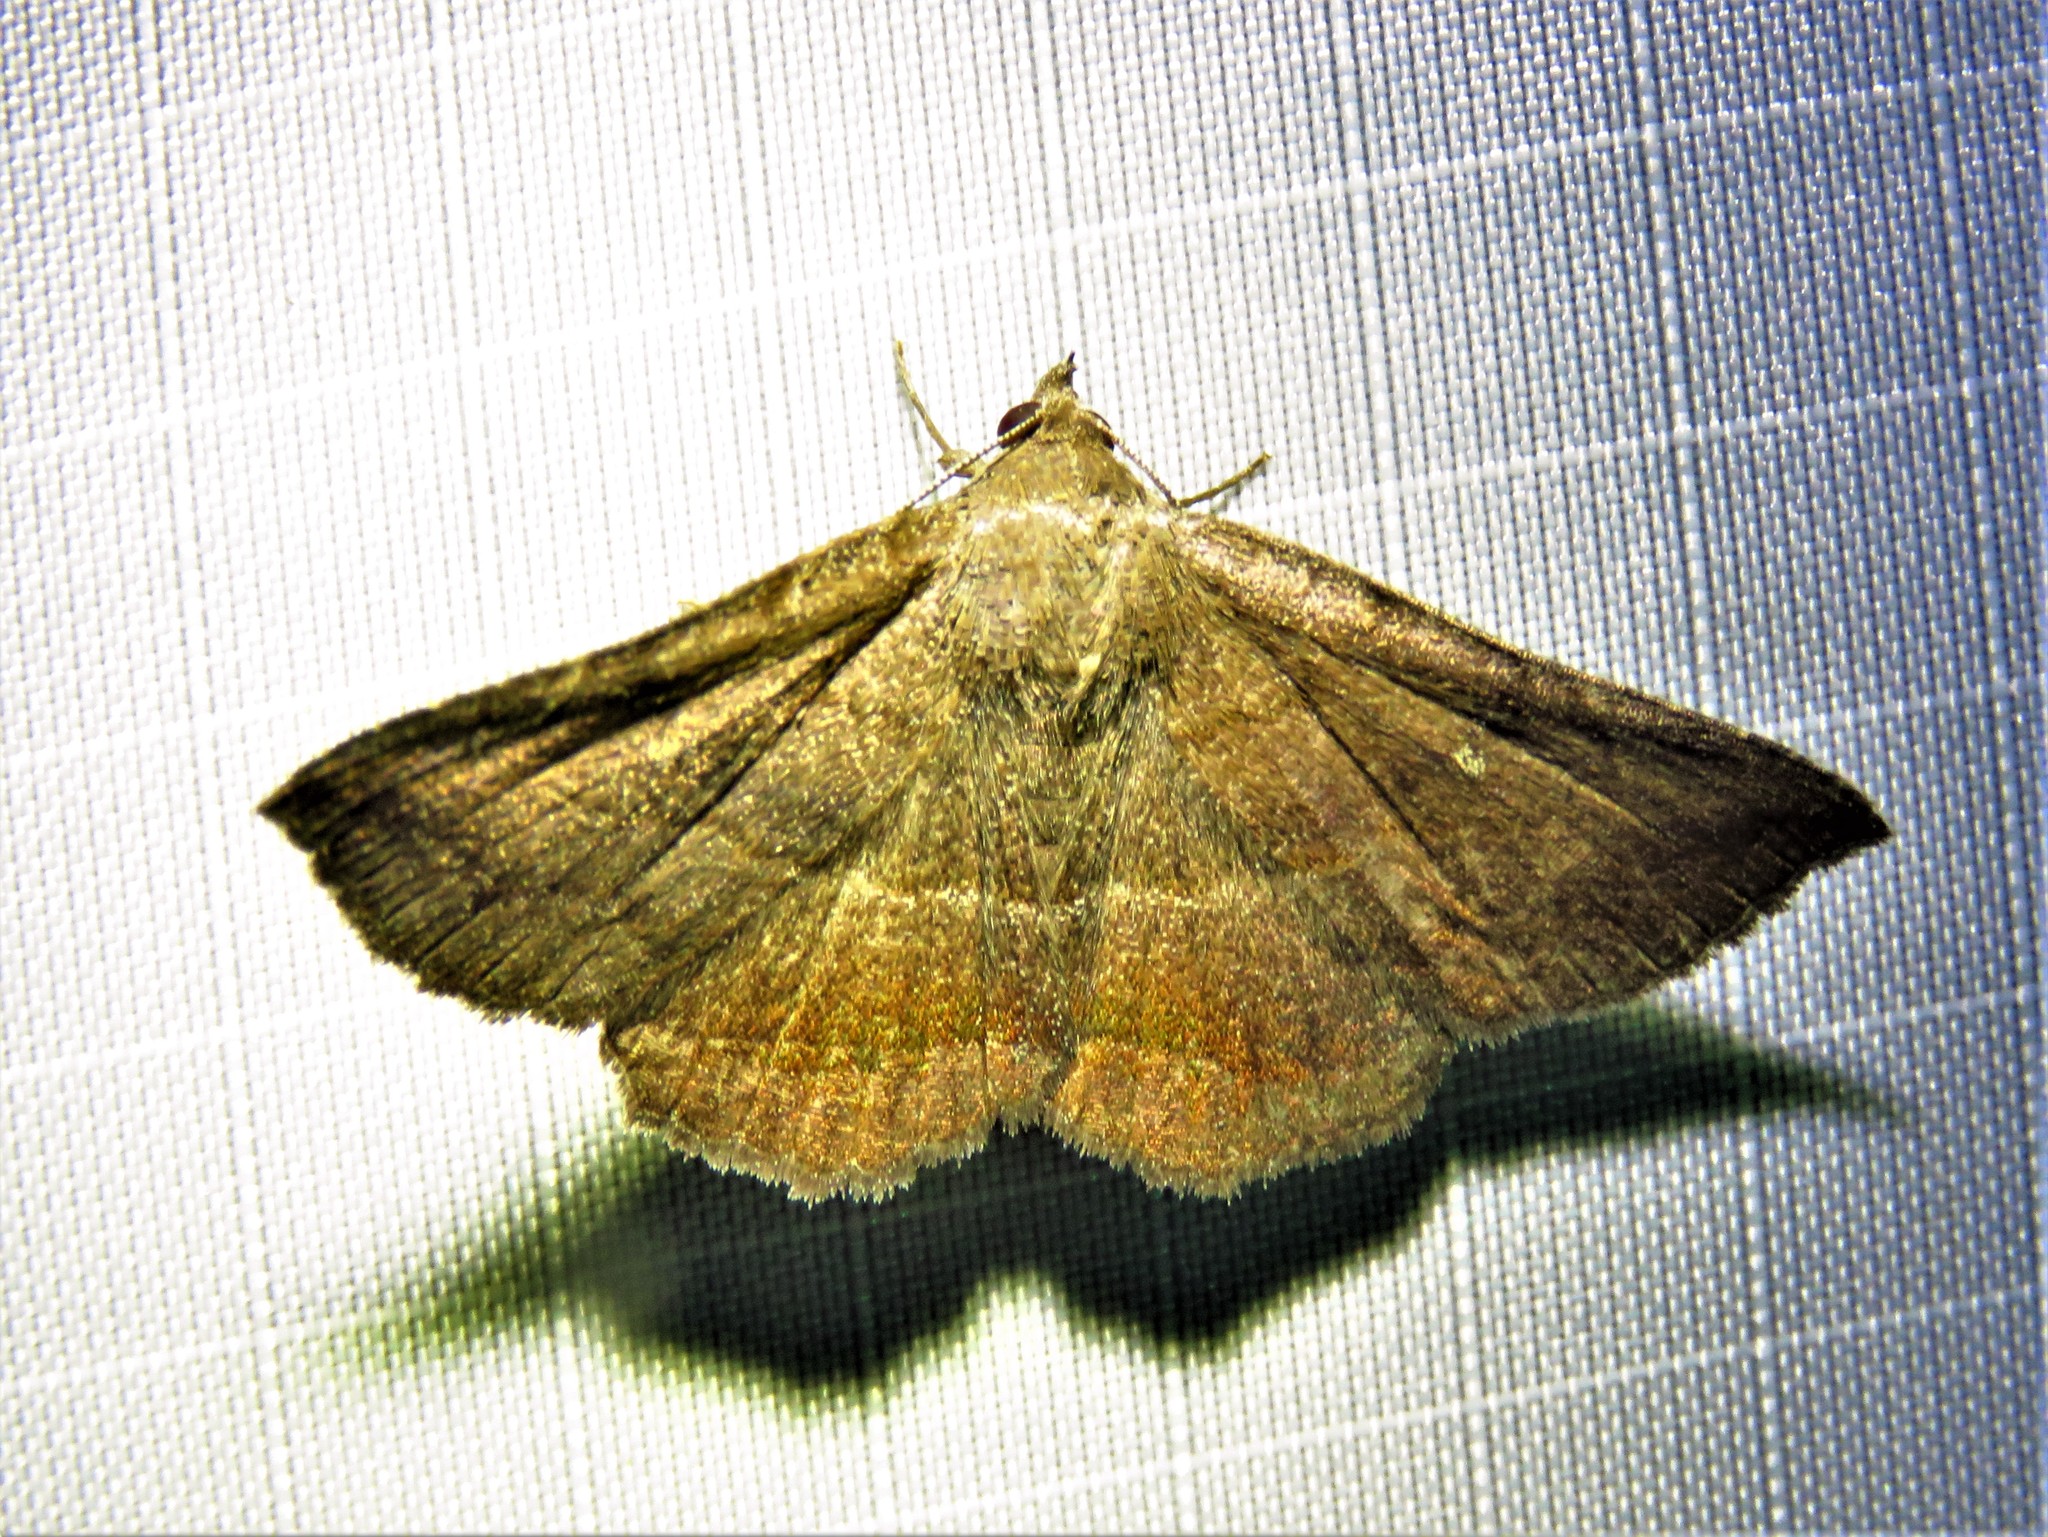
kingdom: Animalia
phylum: Arthropoda
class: Insecta
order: Lepidoptera
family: Erebidae
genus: Lesmone
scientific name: Lesmone detrahens
